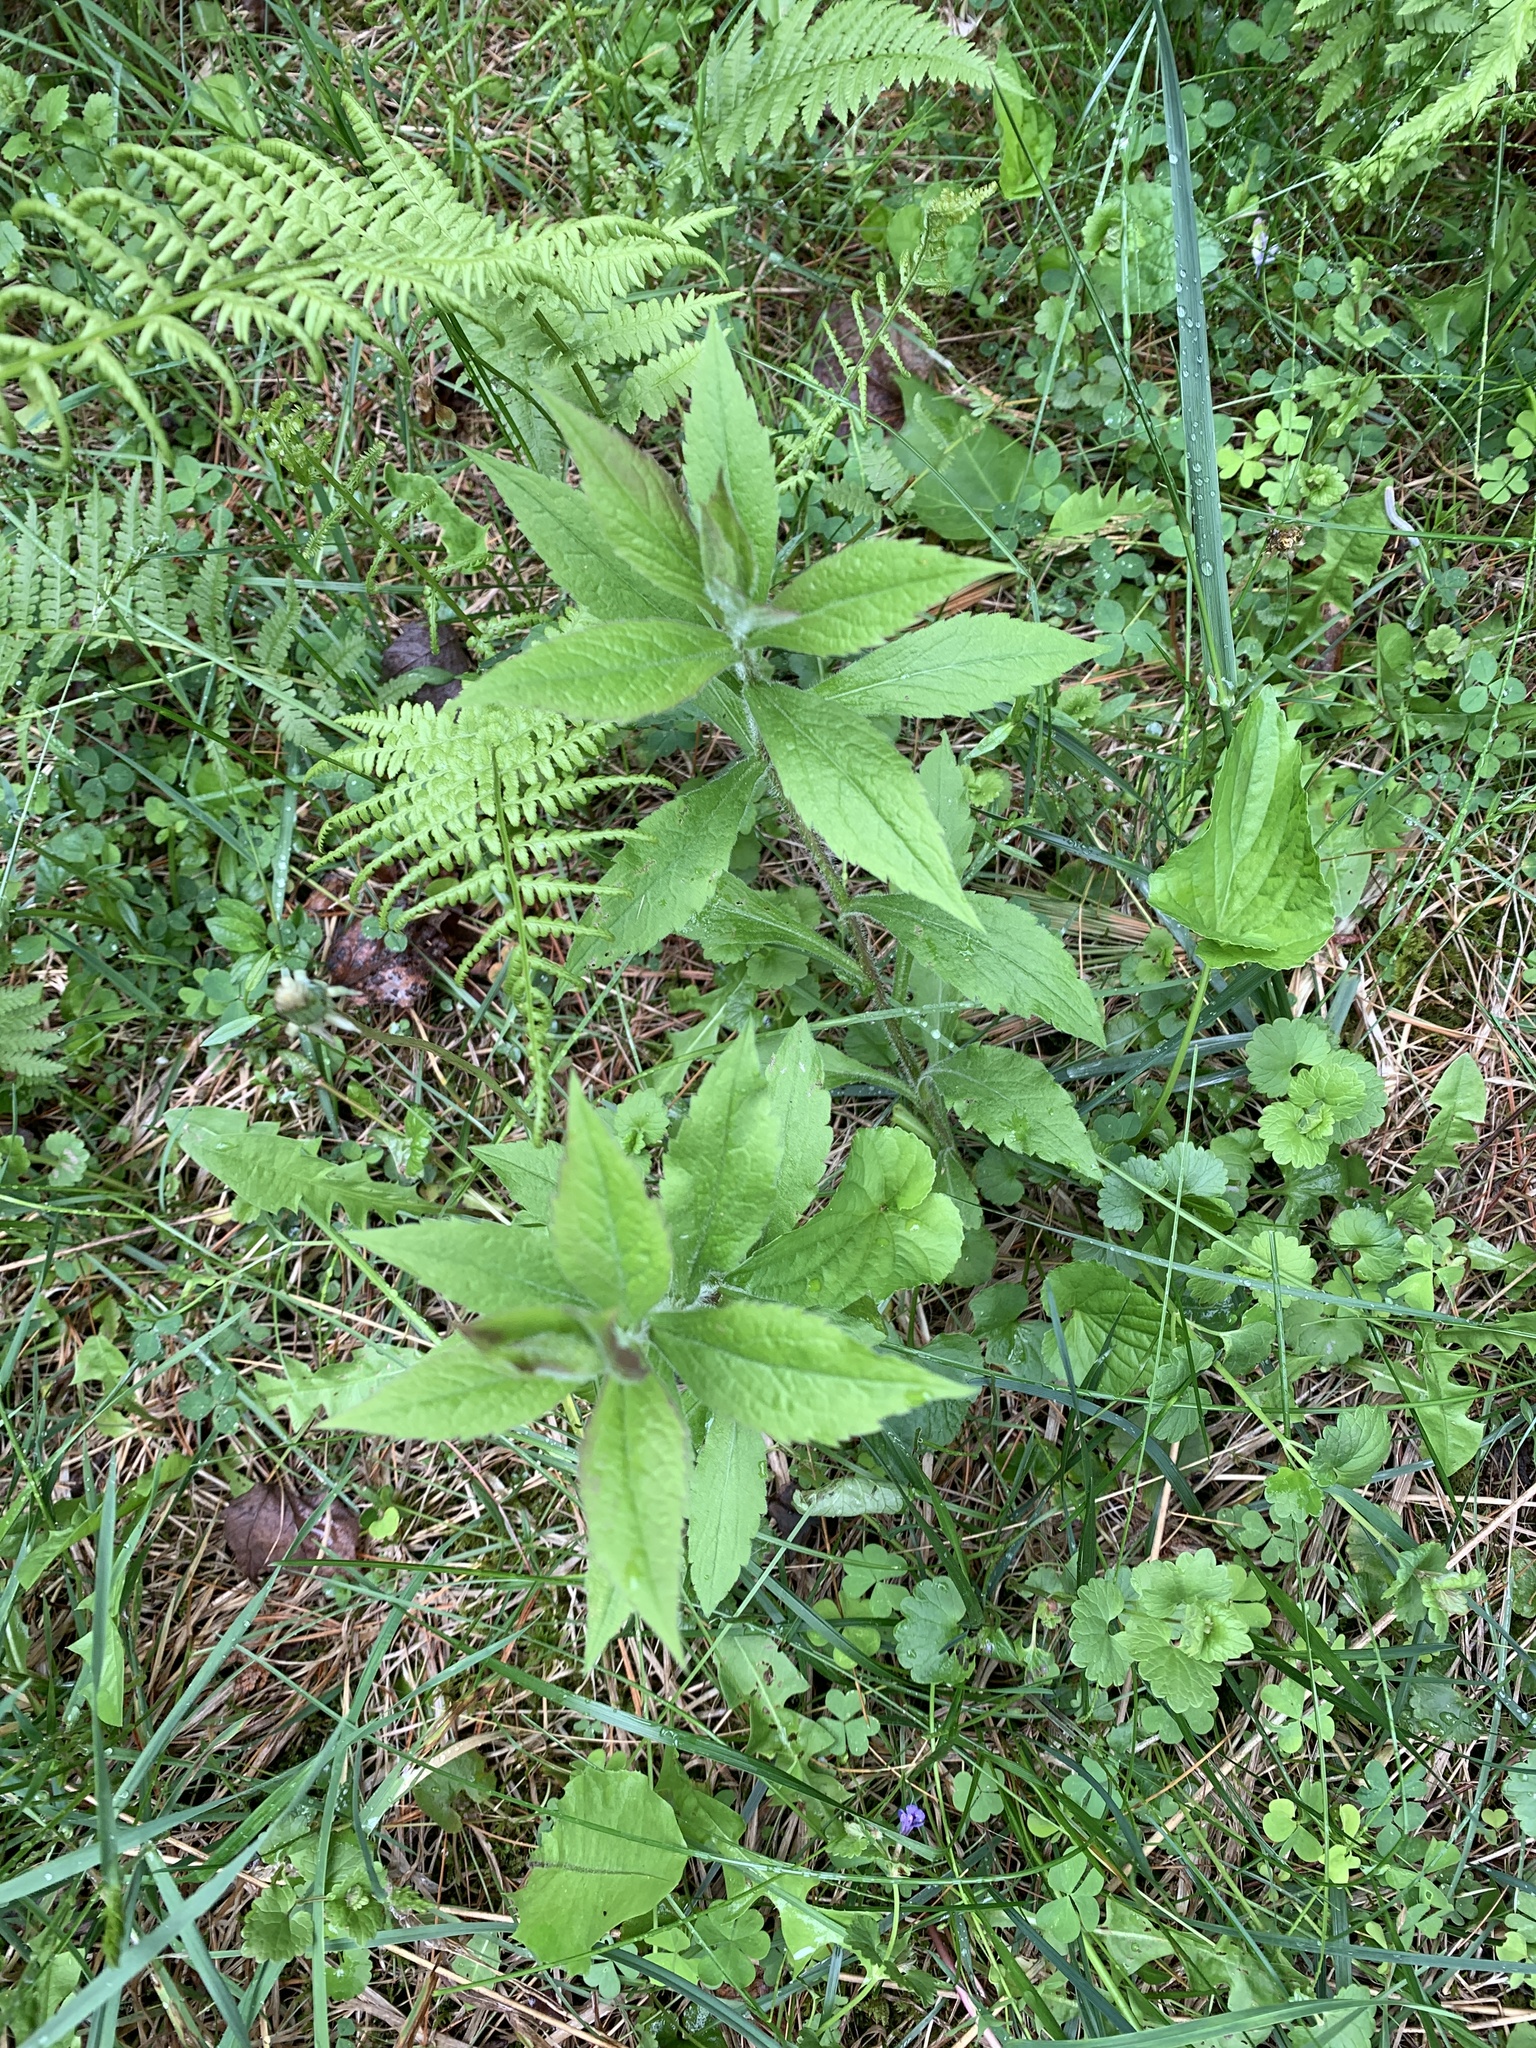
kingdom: Plantae
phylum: Tracheophyta
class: Magnoliopsida
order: Asterales
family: Asteraceae
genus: Solidago
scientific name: Solidago rugosa
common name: Rough-stemmed goldenrod
